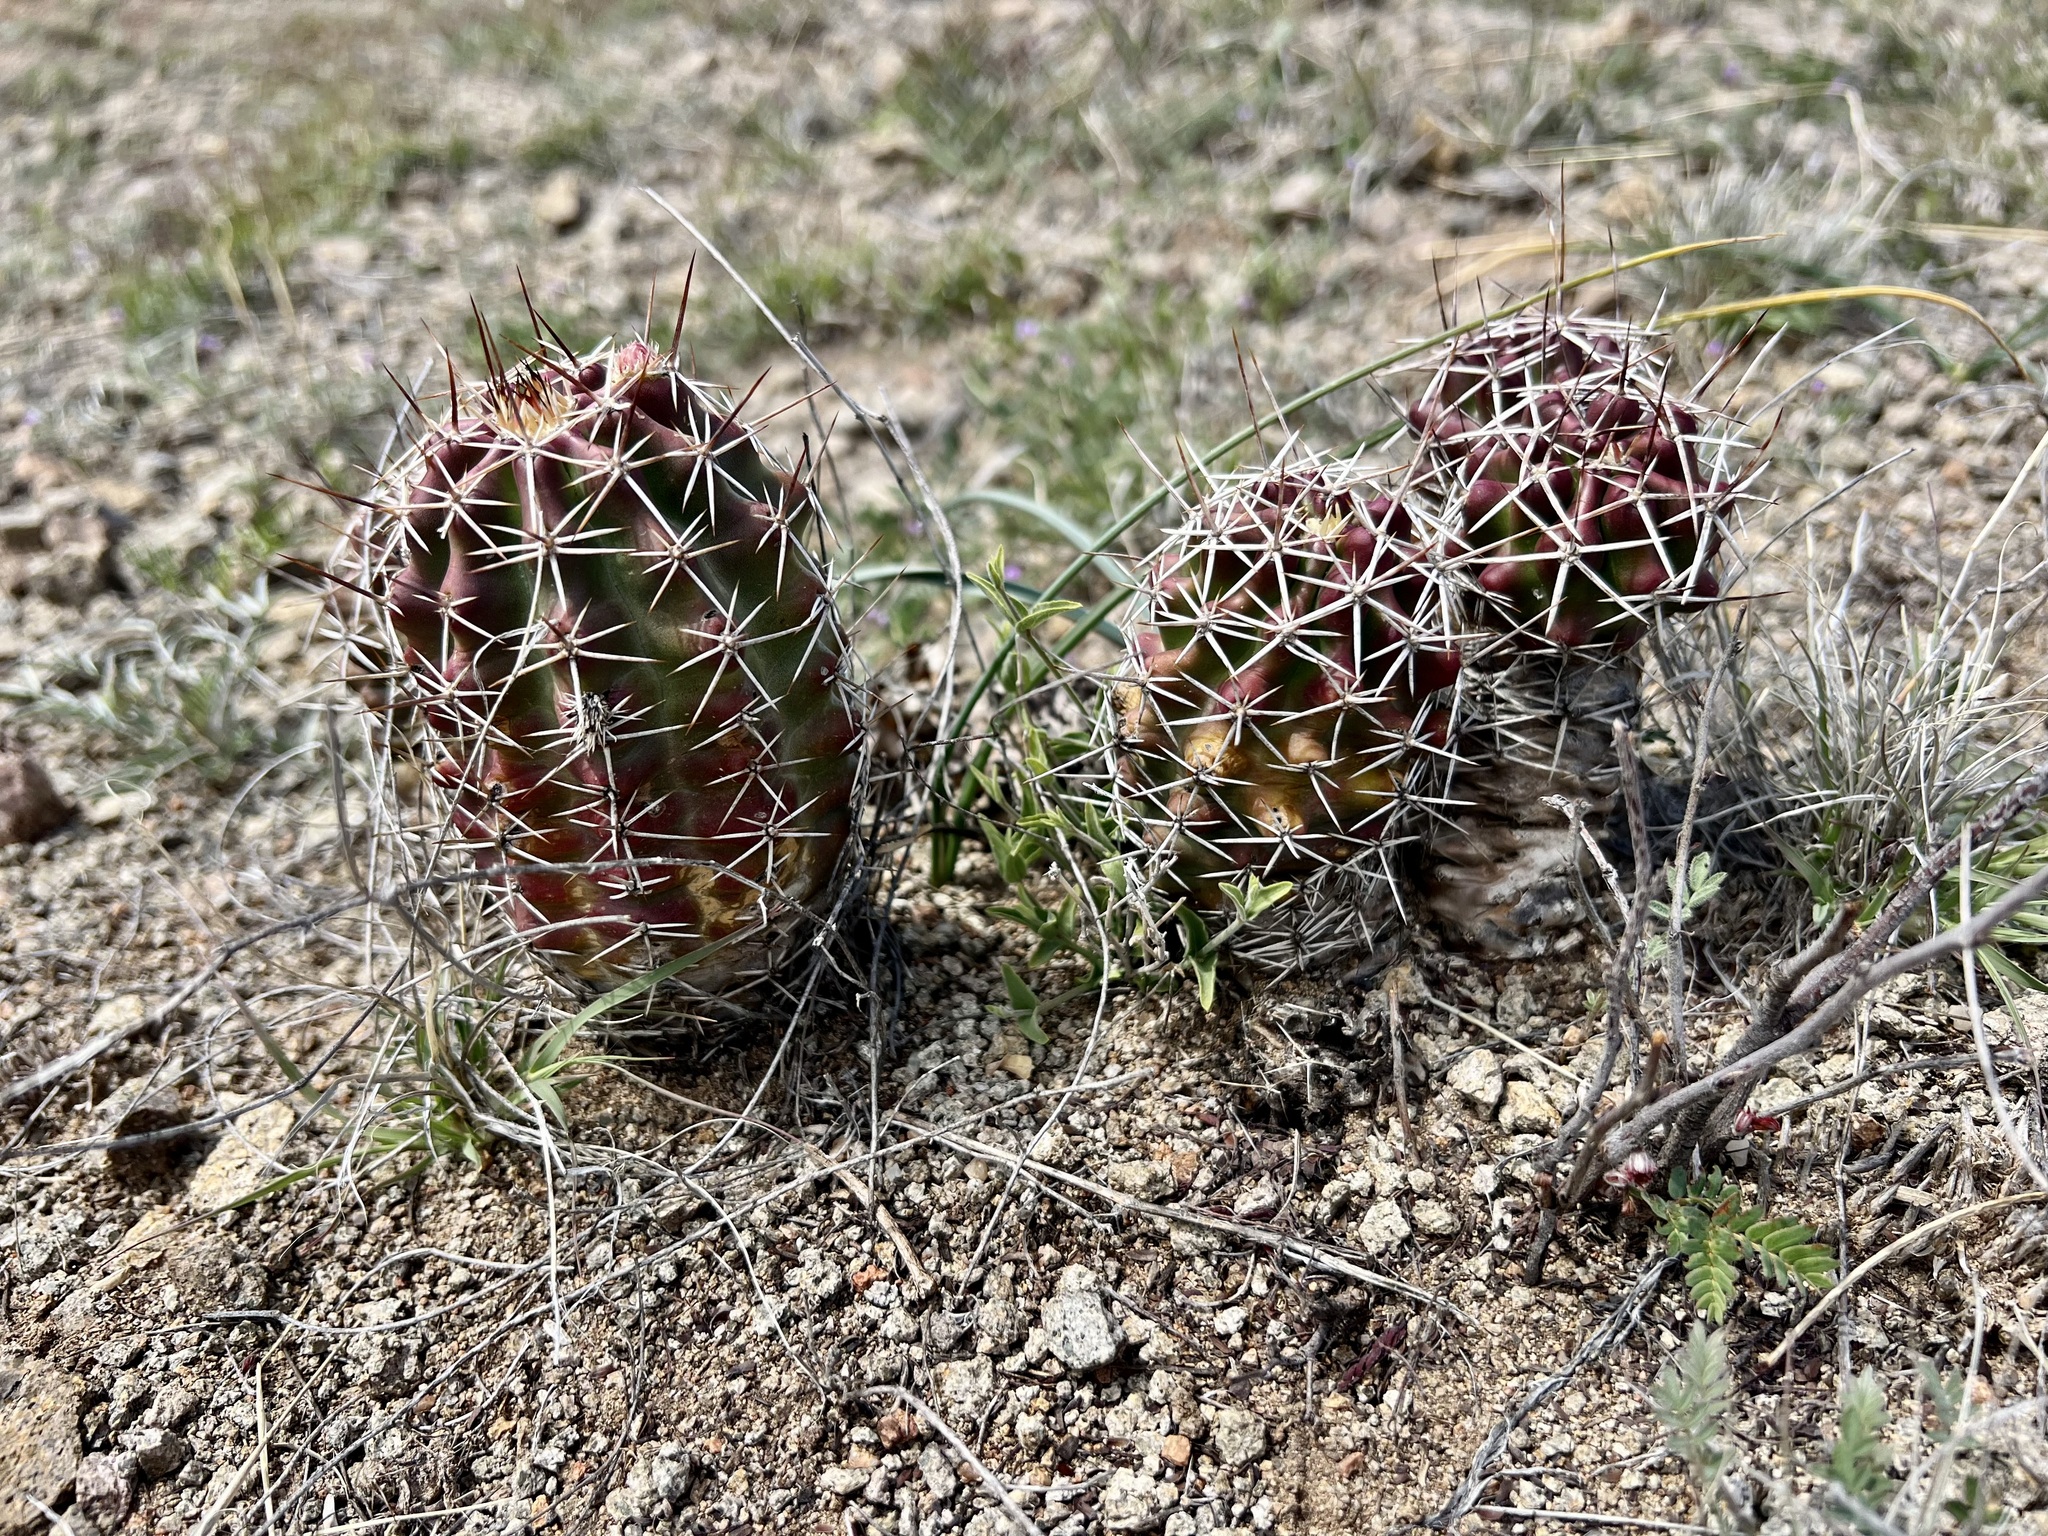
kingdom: Plantae
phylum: Tracheophyta
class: Magnoliopsida
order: Caryophyllales
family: Cactaceae
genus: Echinocereus
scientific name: Echinocereus fendleri
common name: Fendler's hedgehog cactus
